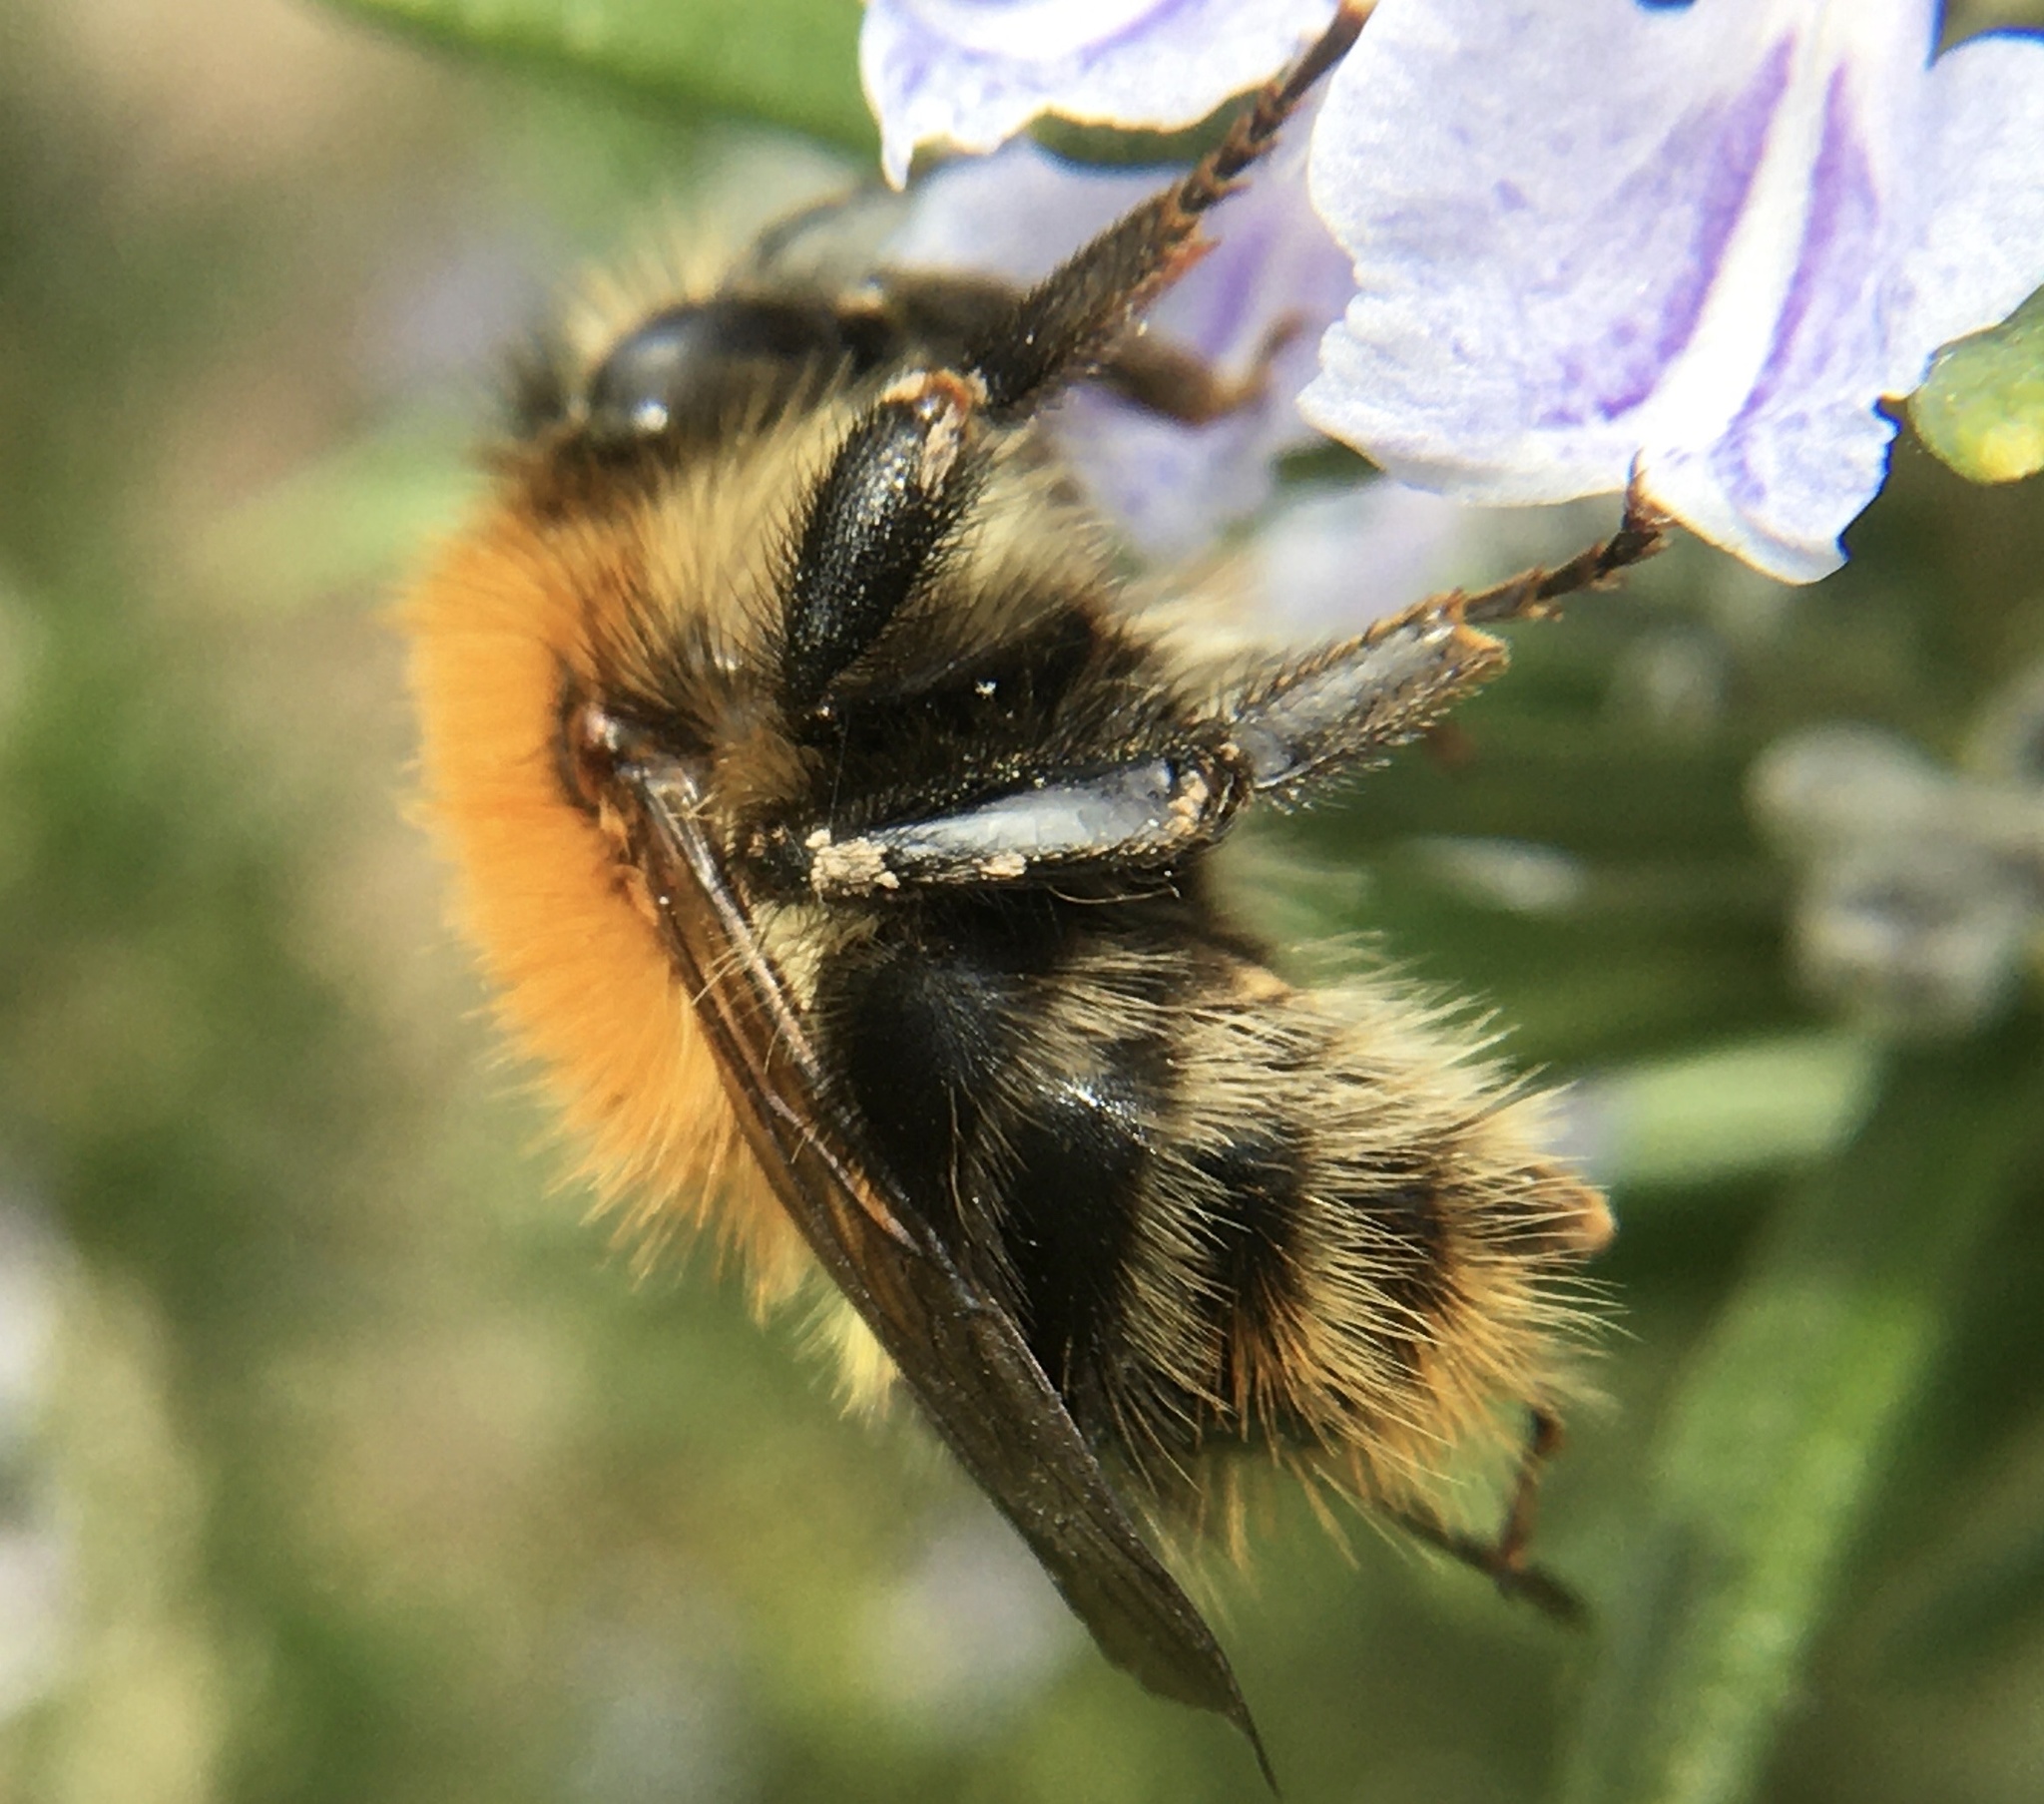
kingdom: Animalia
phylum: Arthropoda
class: Insecta
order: Hymenoptera
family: Apidae
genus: Bombus
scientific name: Bombus pascuorum
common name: Common carder bee
